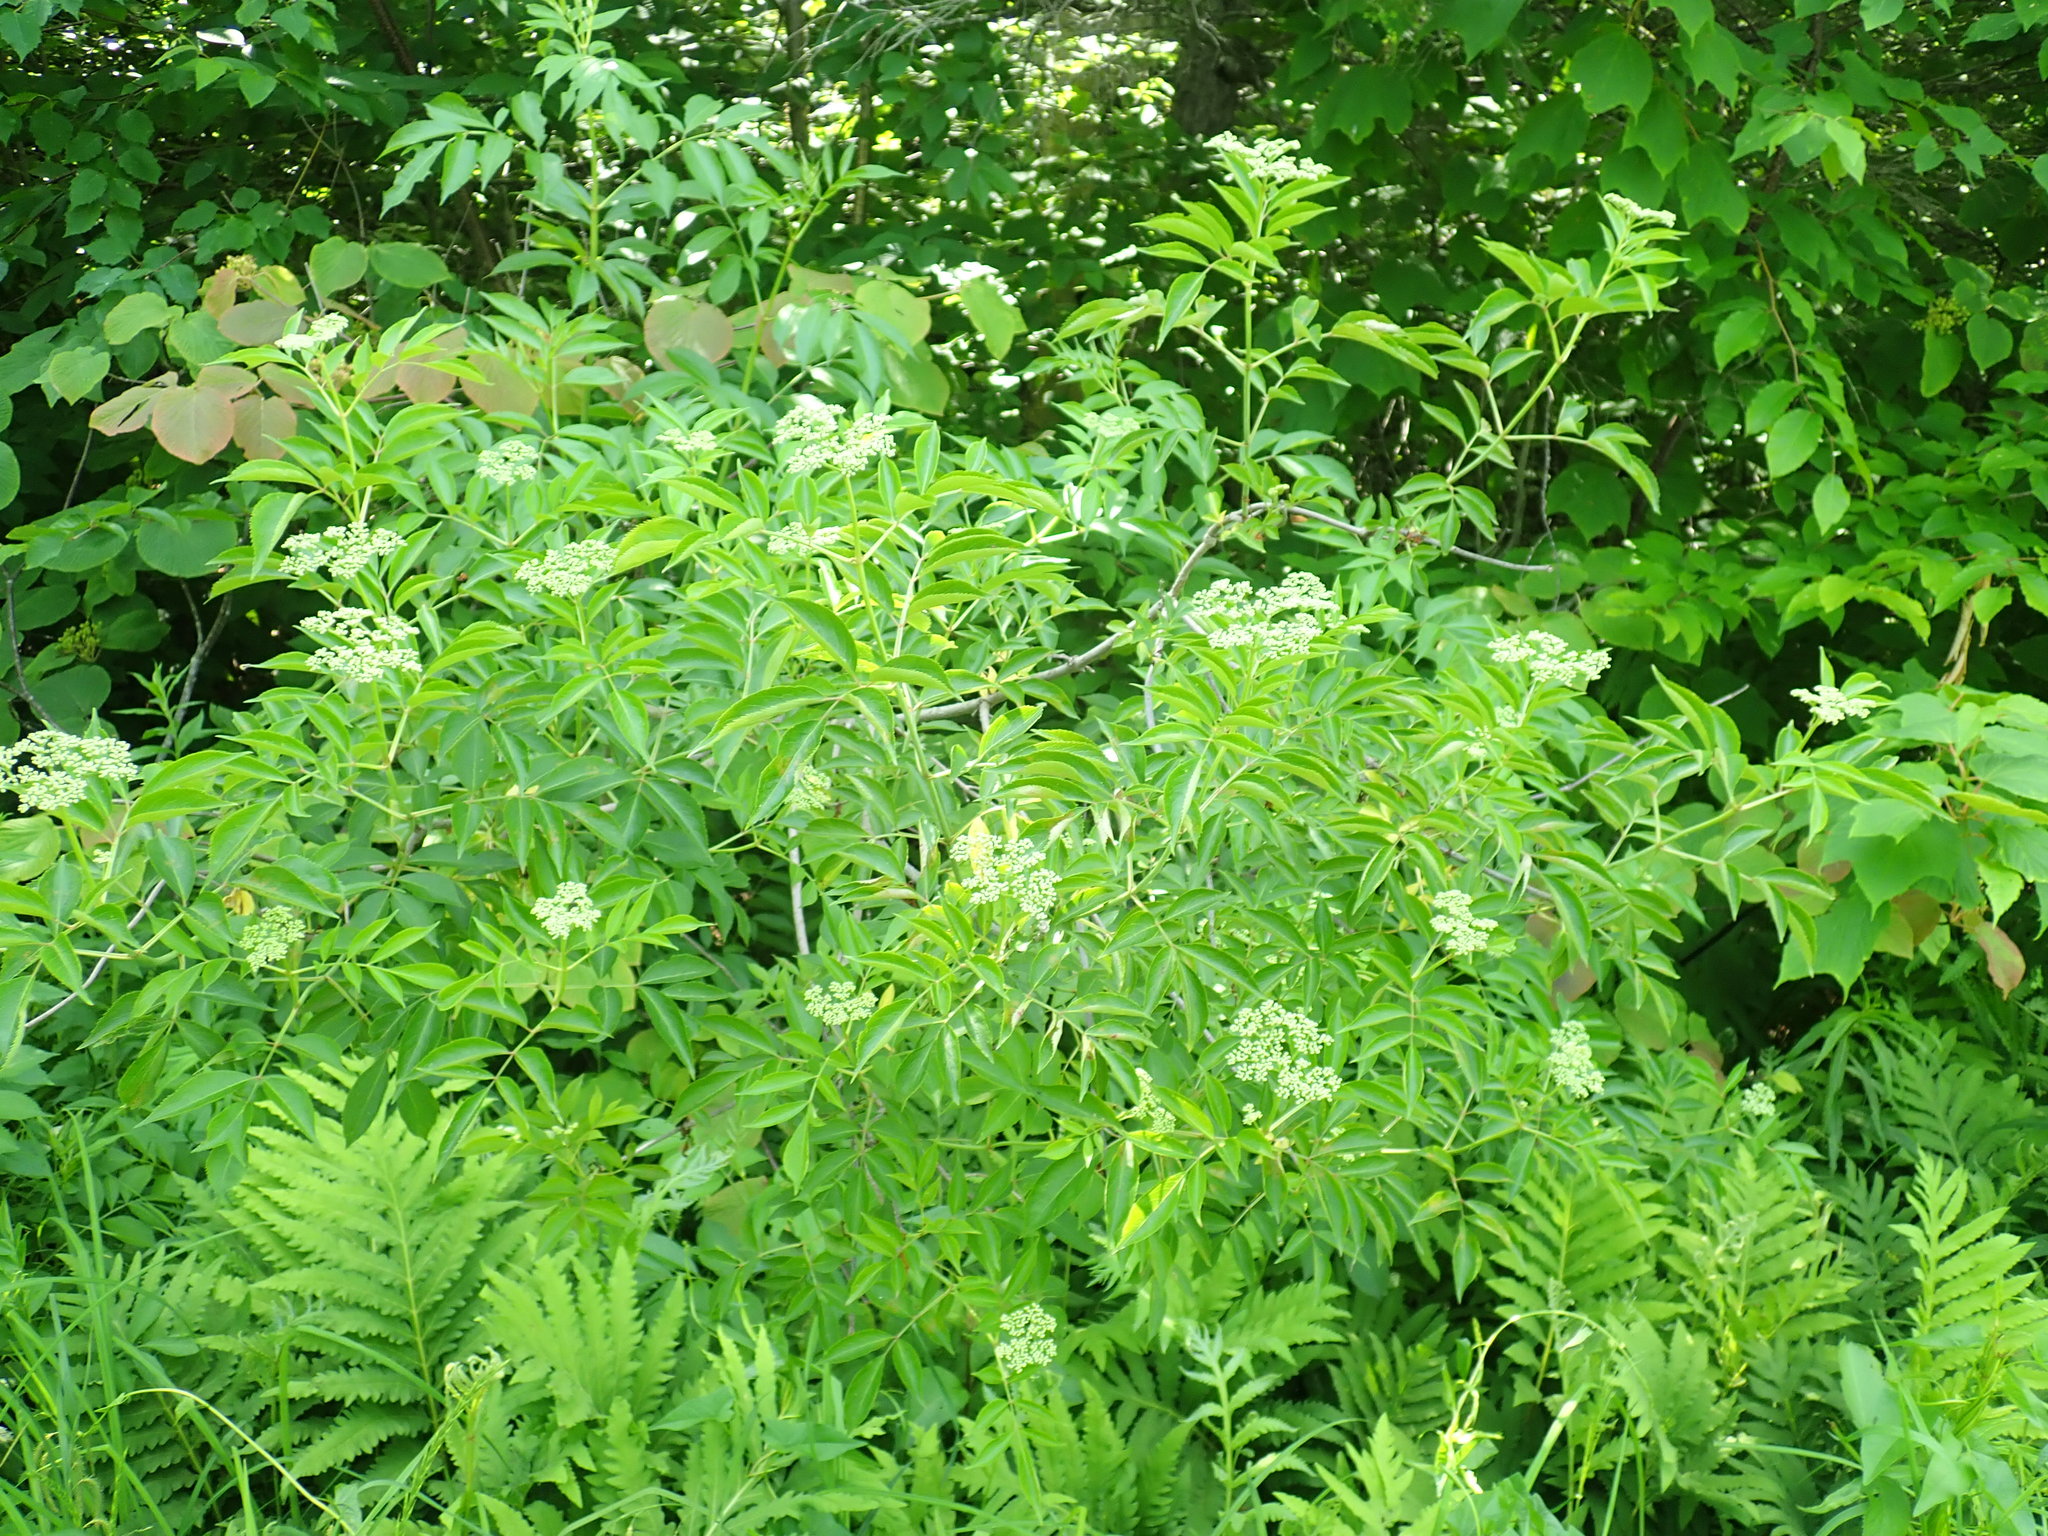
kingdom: Plantae
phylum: Tracheophyta
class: Magnoliopsida
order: Dipsacales
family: Viburnaceae
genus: Sambucus
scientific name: Sambucus canadensis
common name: American elder
